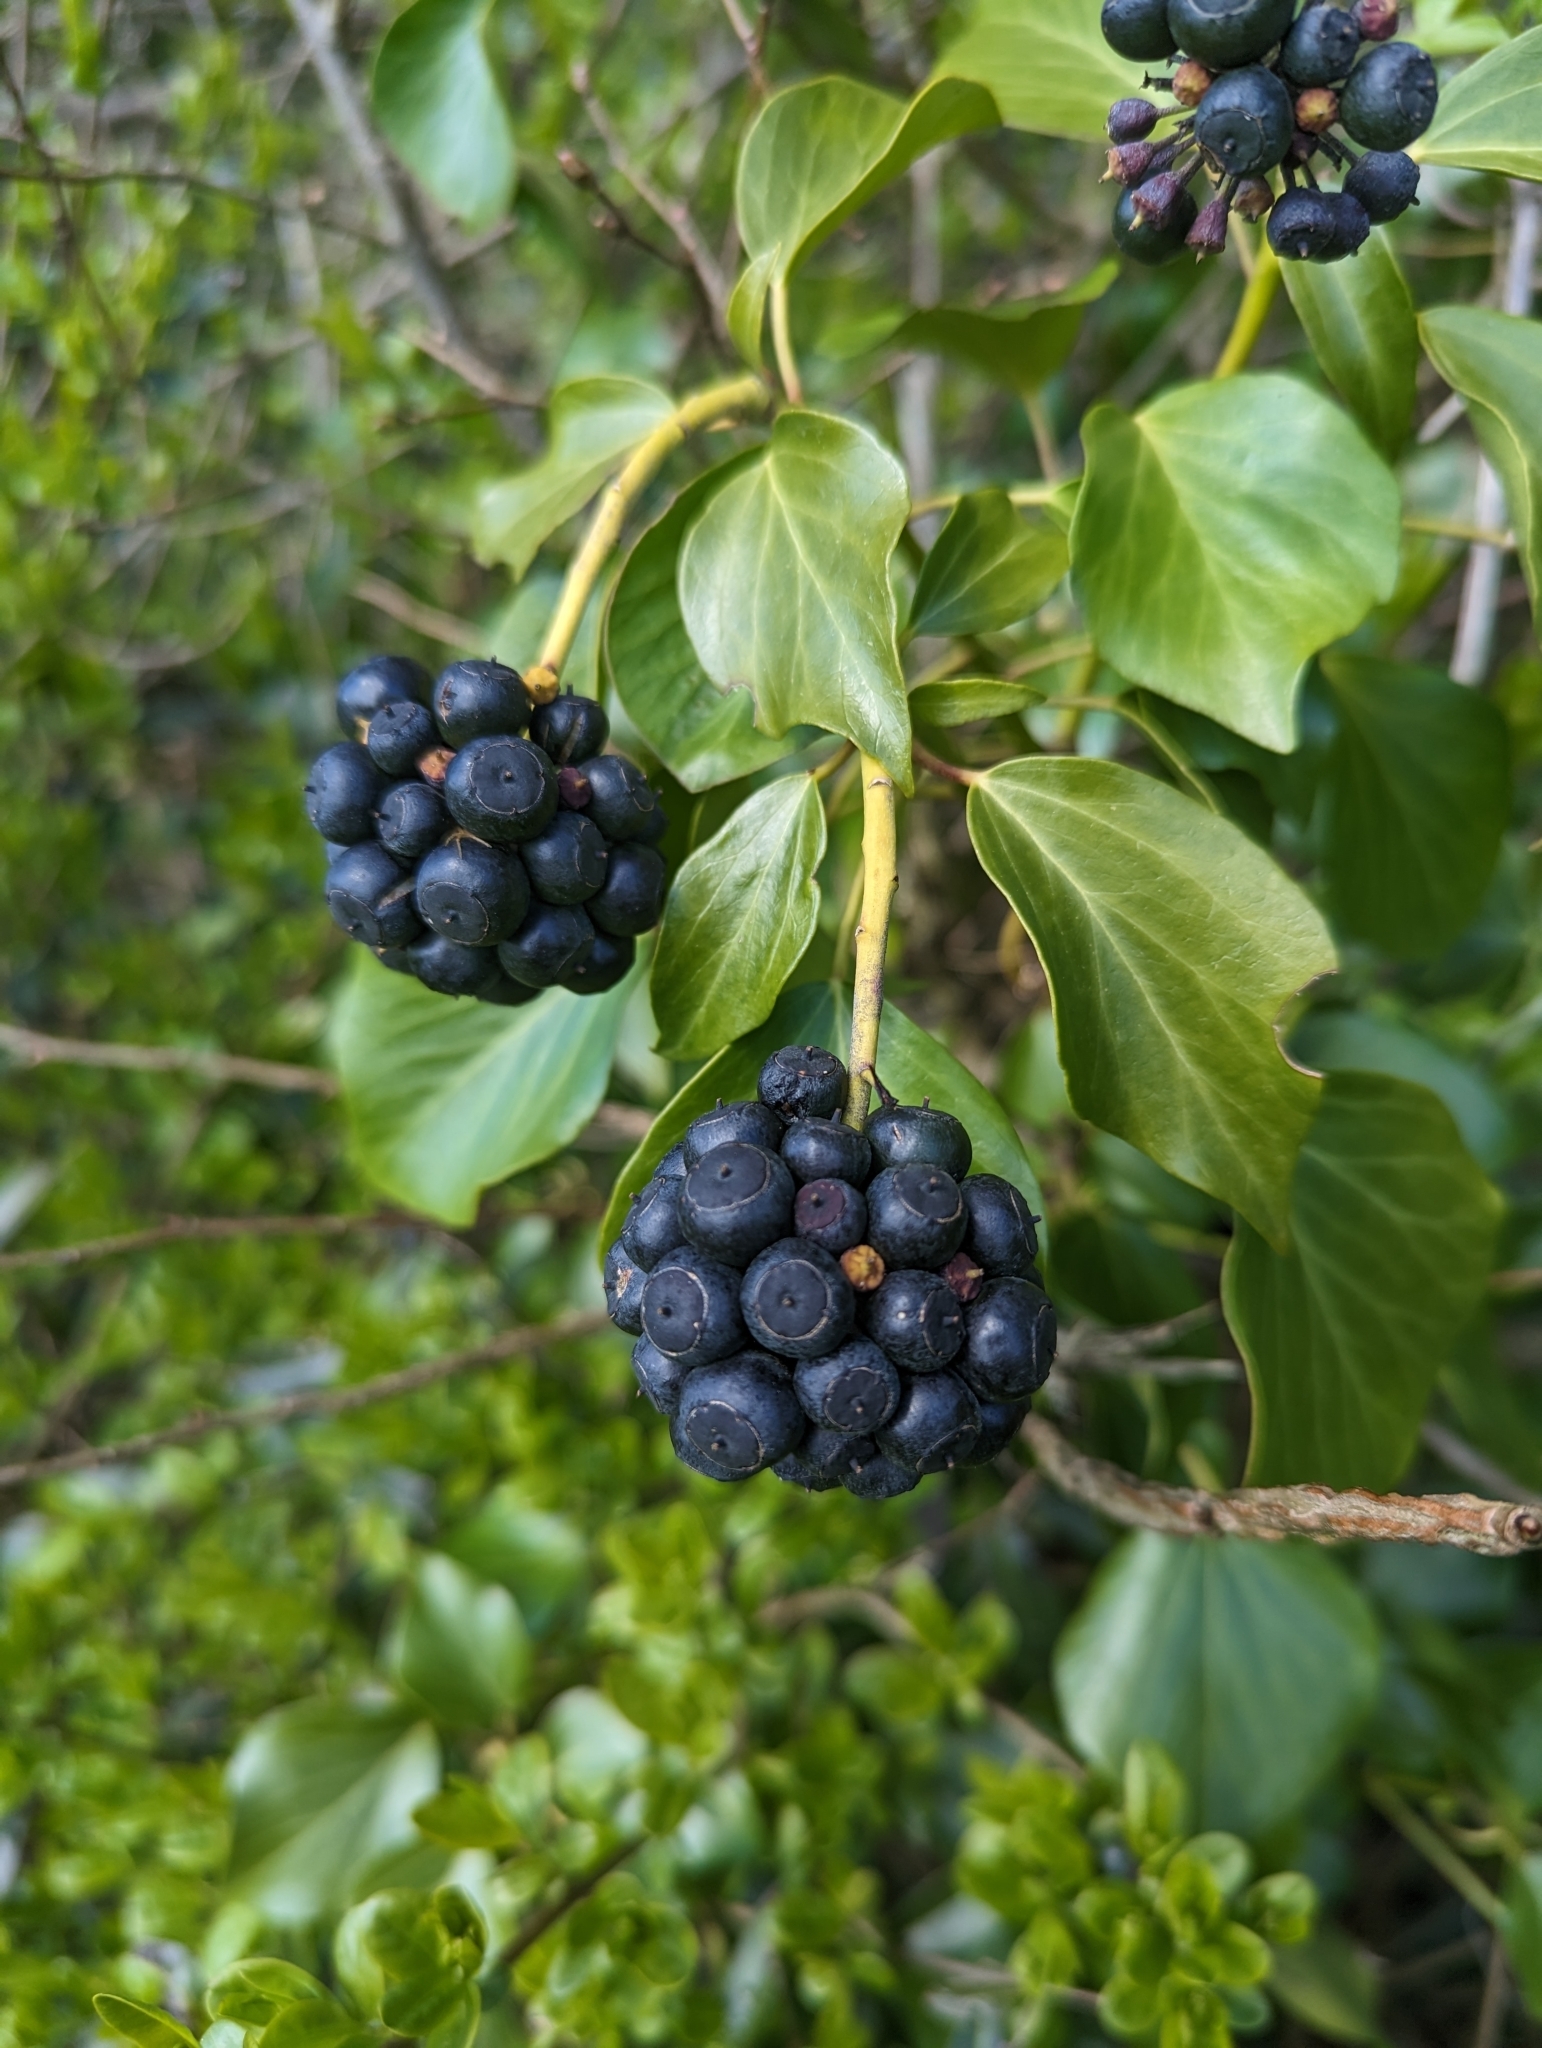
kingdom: Plantae
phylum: Tracheophyta
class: Magnoliopsida
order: Apiales
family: Araliaceae
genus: Hedera
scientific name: Hedera helix
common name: Ivy
